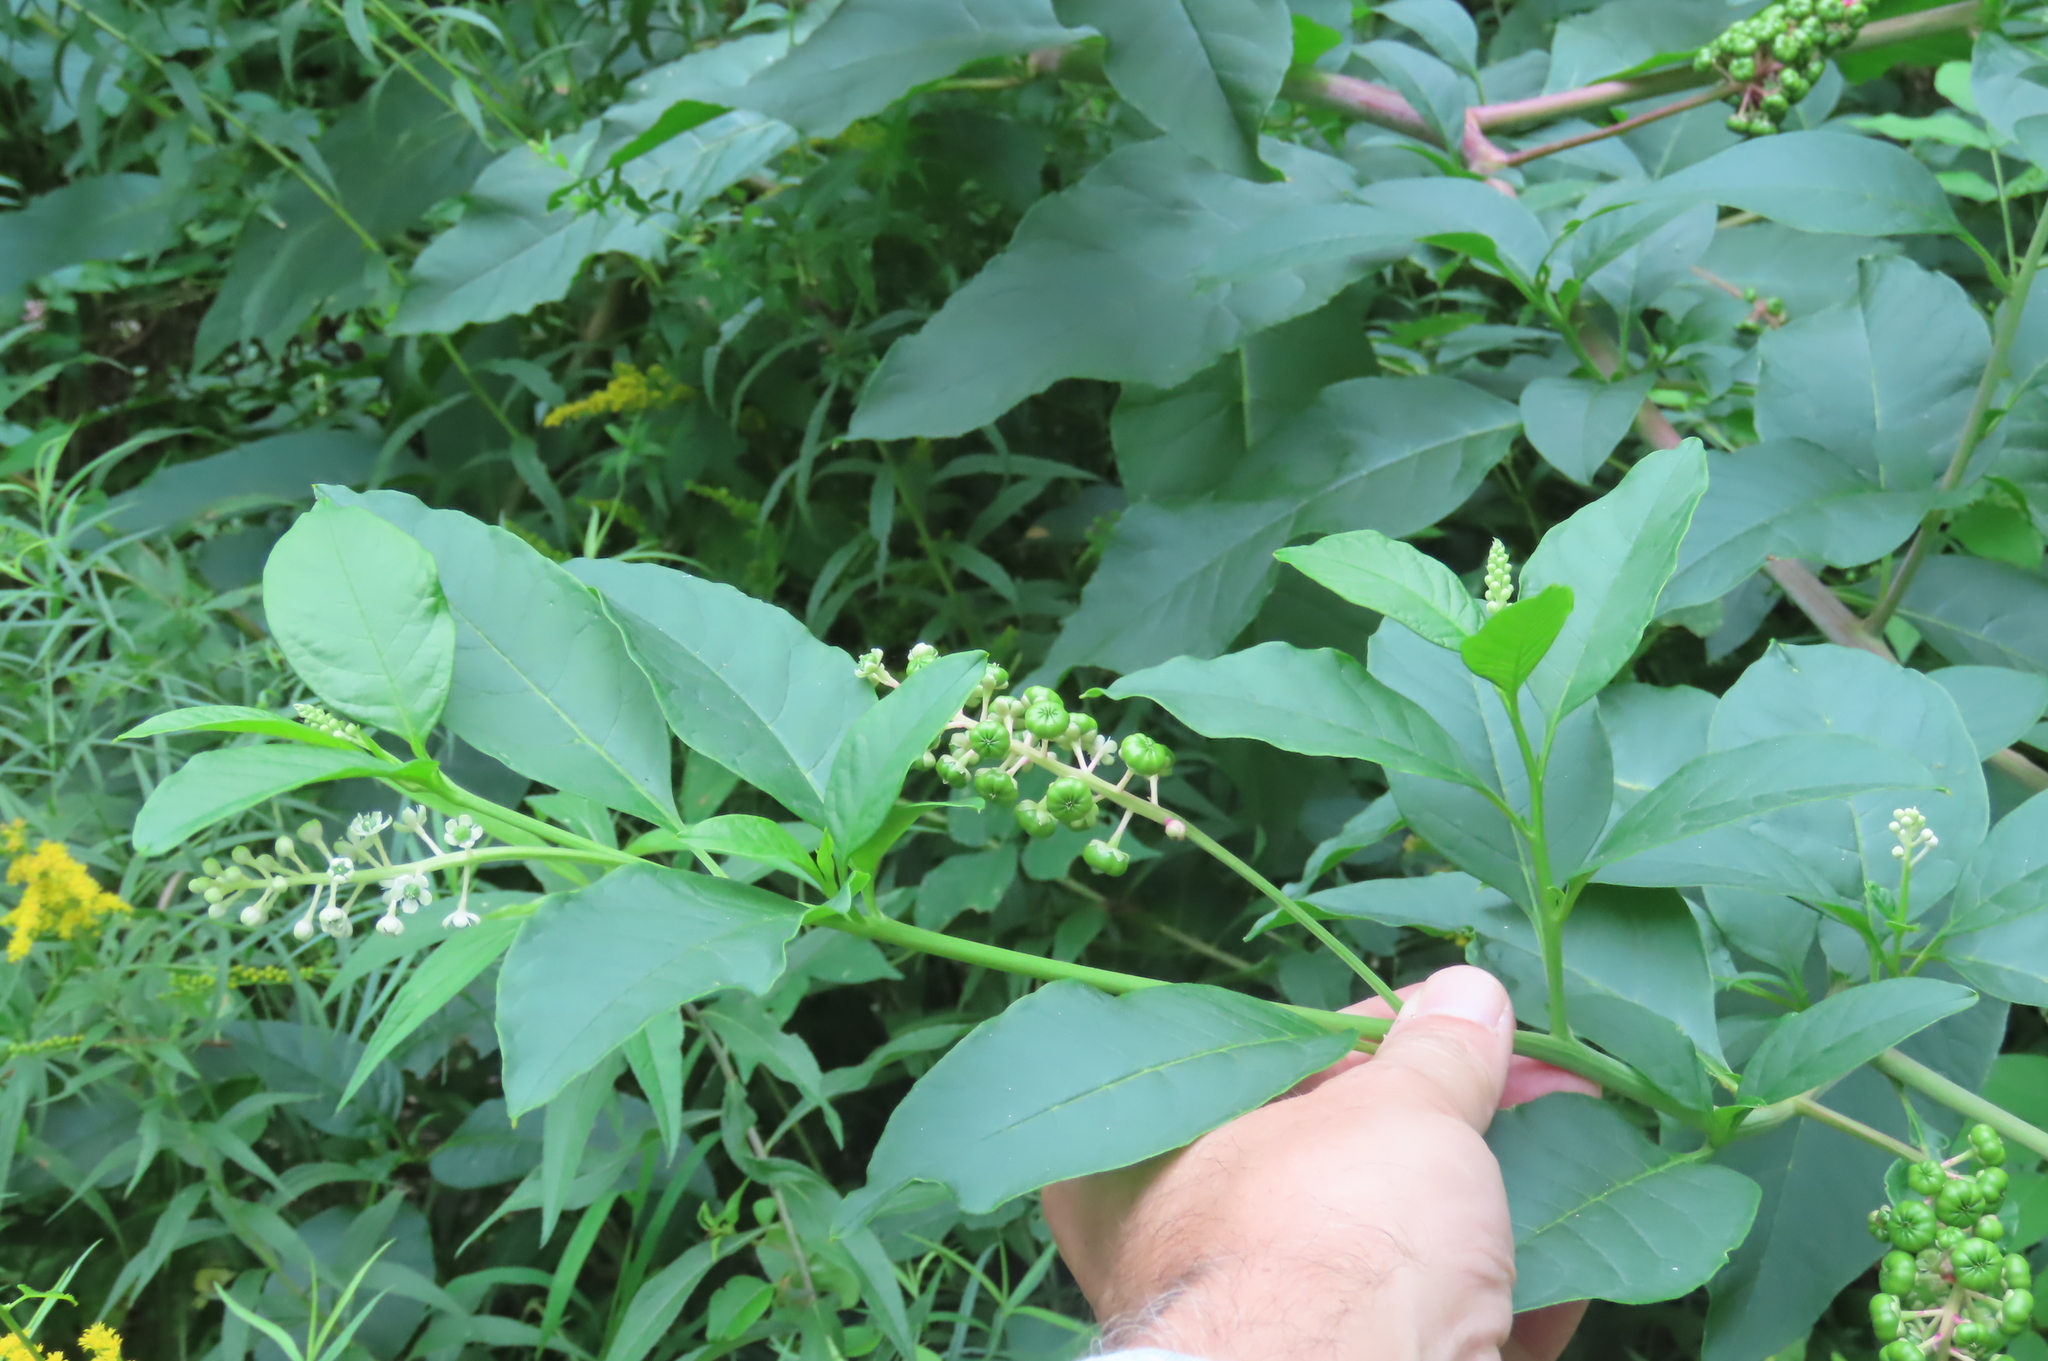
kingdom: Plantae
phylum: Tracheophyta
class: Magnoliopsida
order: Caryophyllales
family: Phytolaccaceae
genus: Phytolacca
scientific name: Phytolacca americana
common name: American pokeweed
